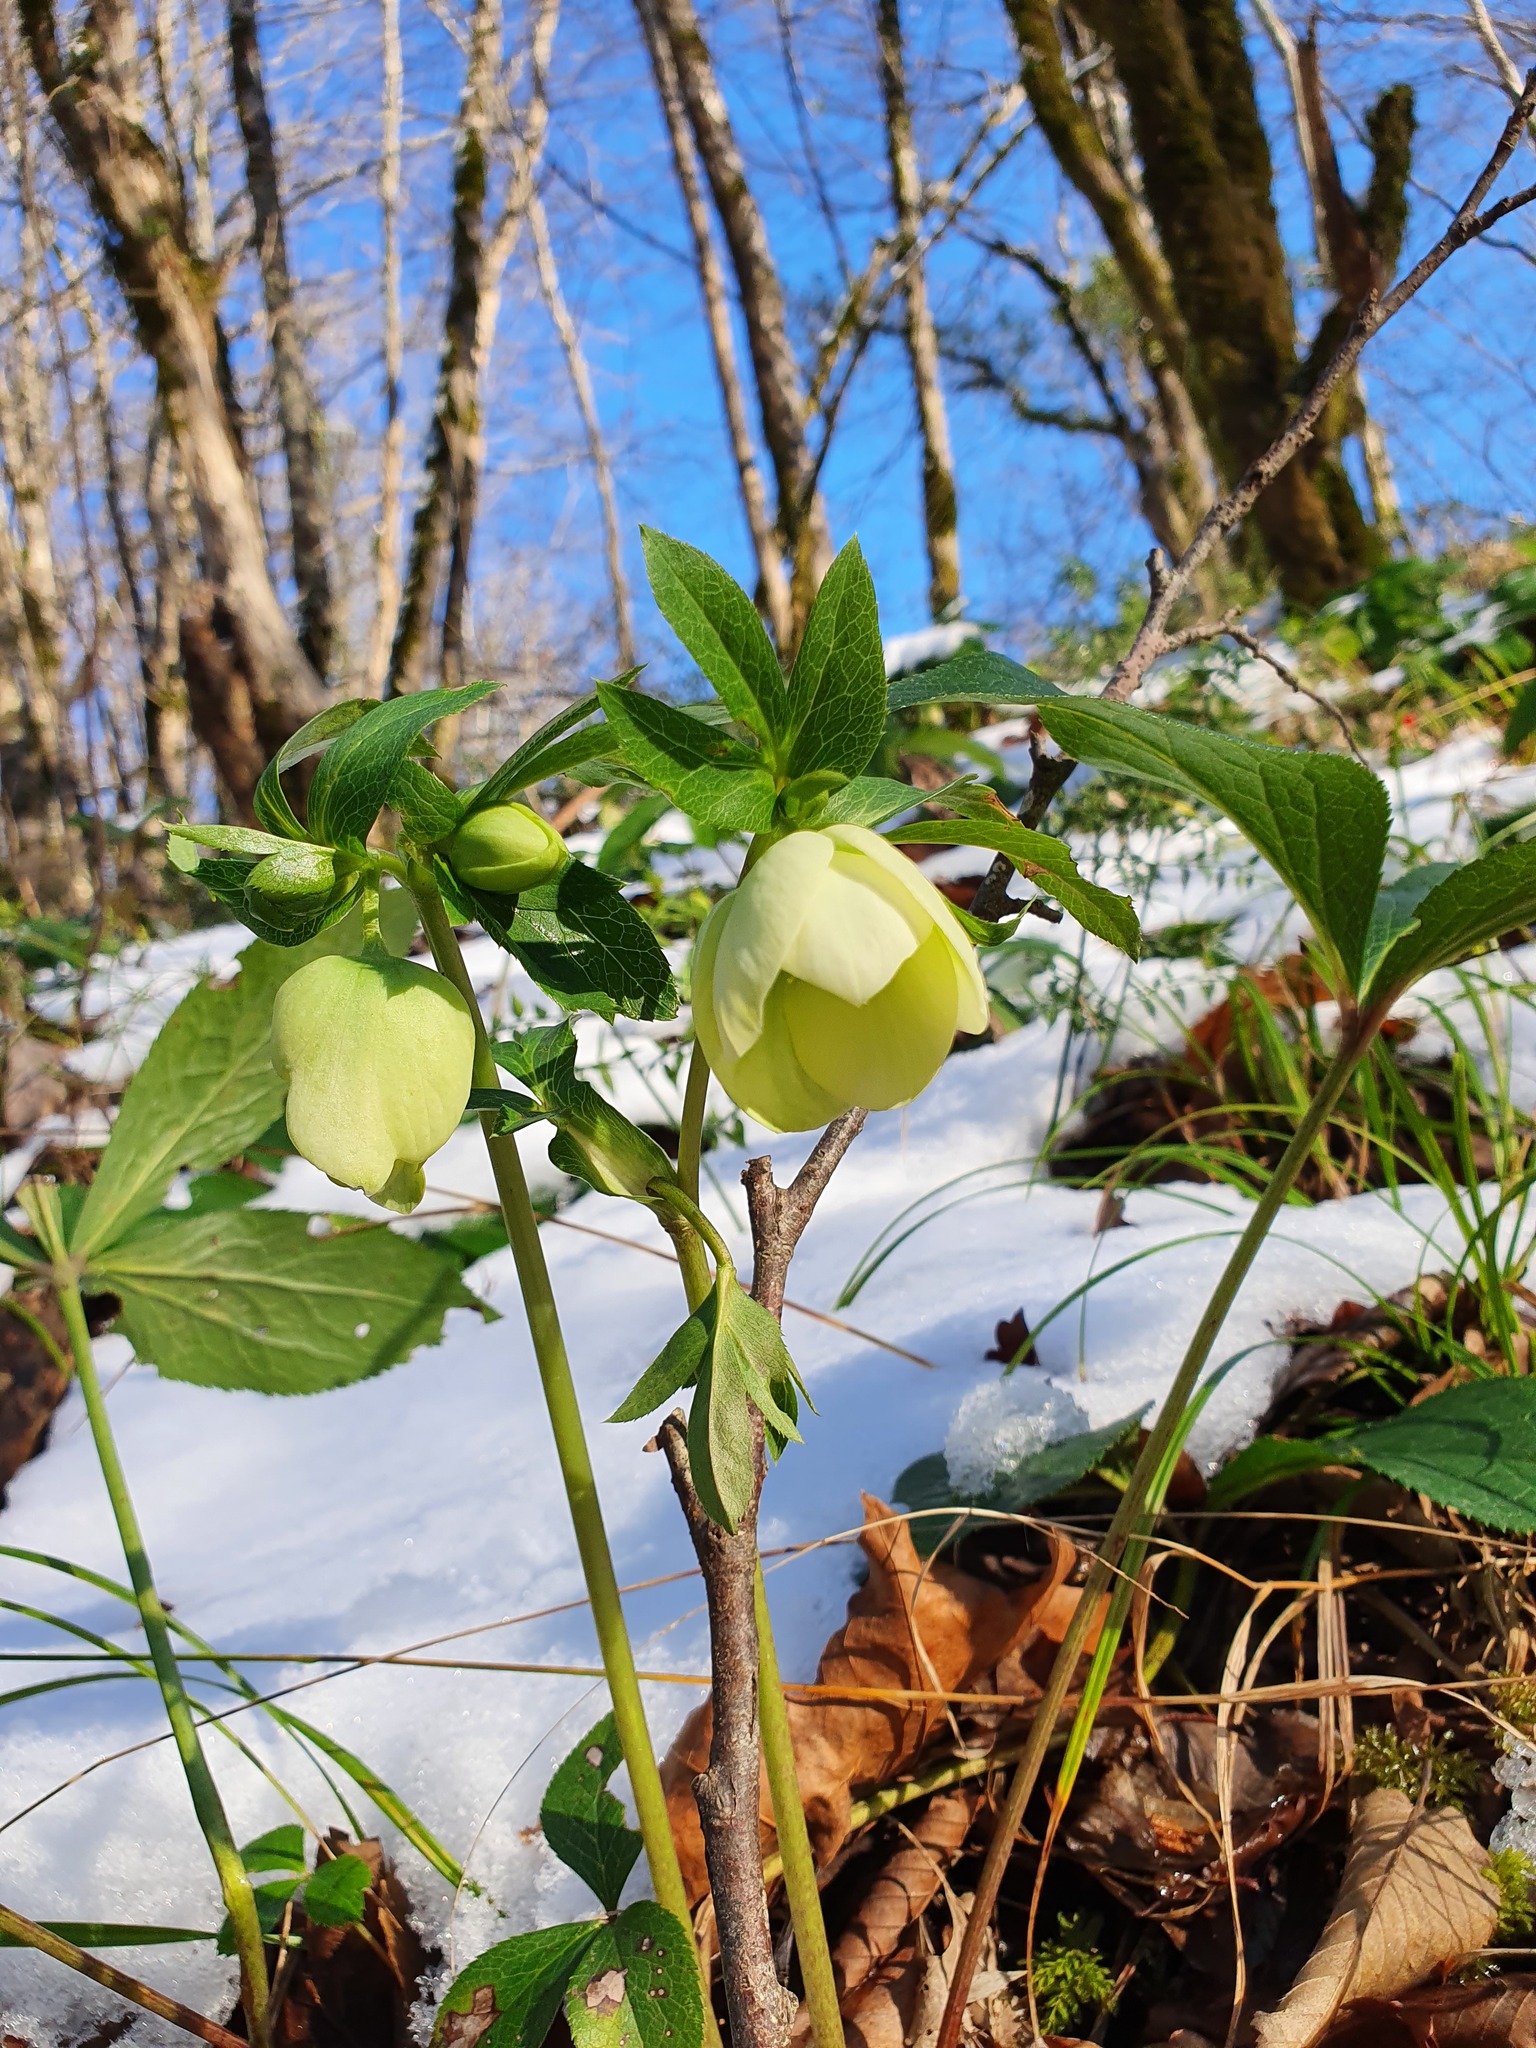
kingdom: Plantae
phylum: Tracheophyta
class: Magnoliopsida
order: Ranunculales
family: Ranunculaceae
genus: Helleborus
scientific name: Helleborus orientalis
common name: Lenten-rose
